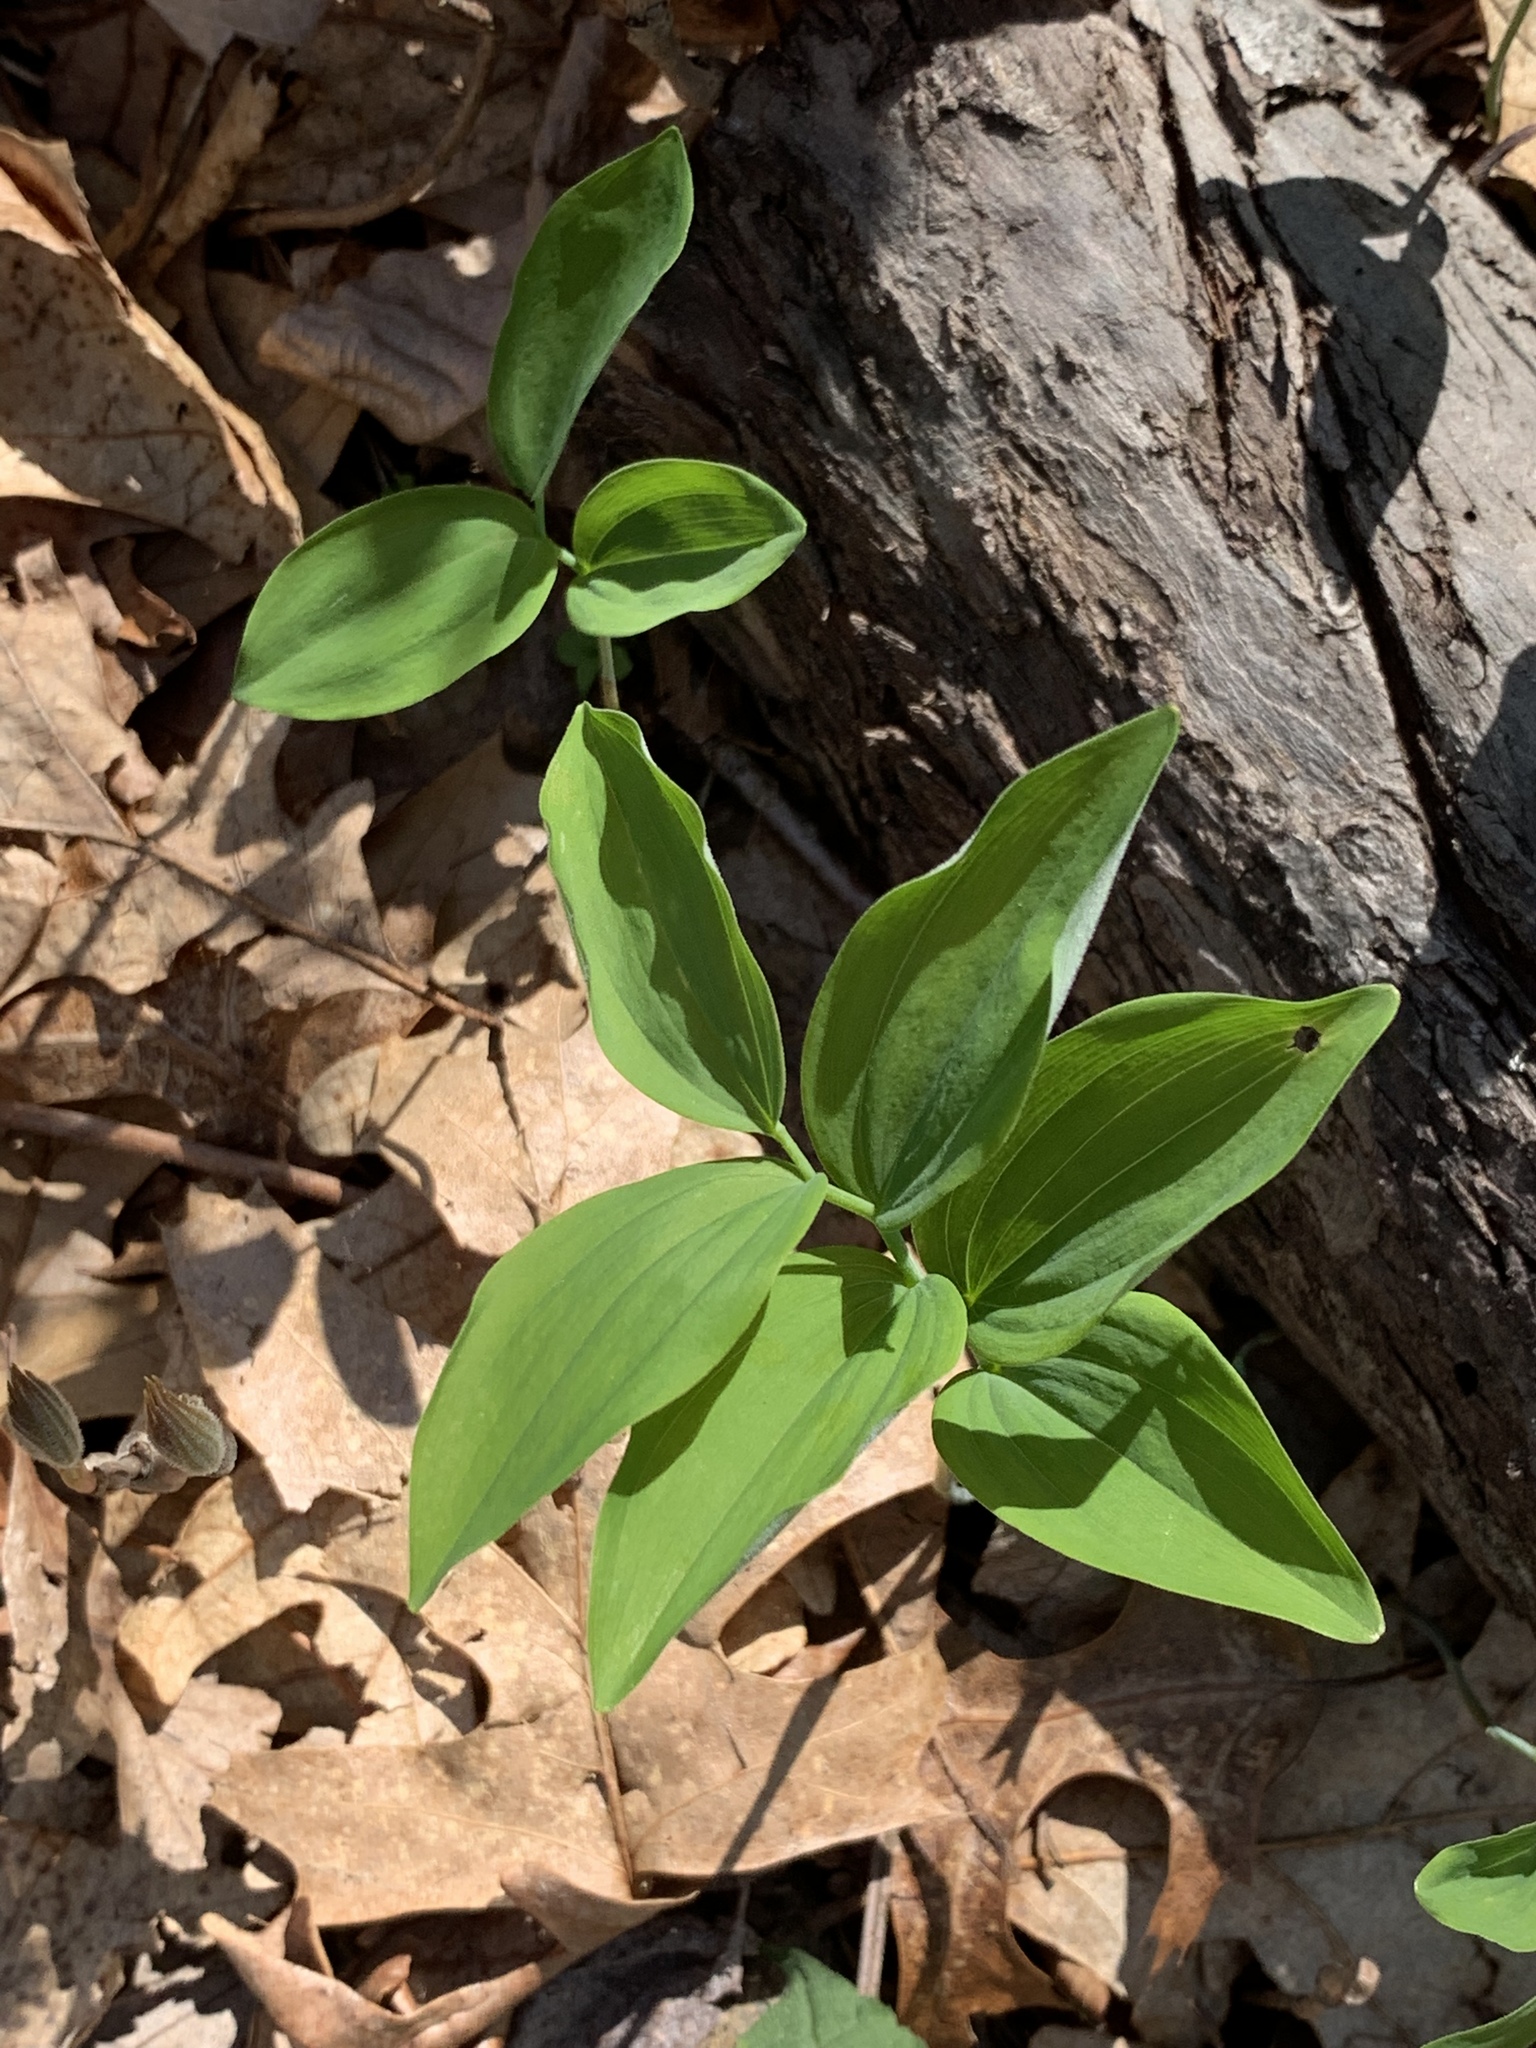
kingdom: Plantae
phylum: Tracheophyta
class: Liliopsida
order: Asparagales
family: Asparagaceae
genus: Polygonatum
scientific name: Polygonatum pubescens
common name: Downy solomon's seal
